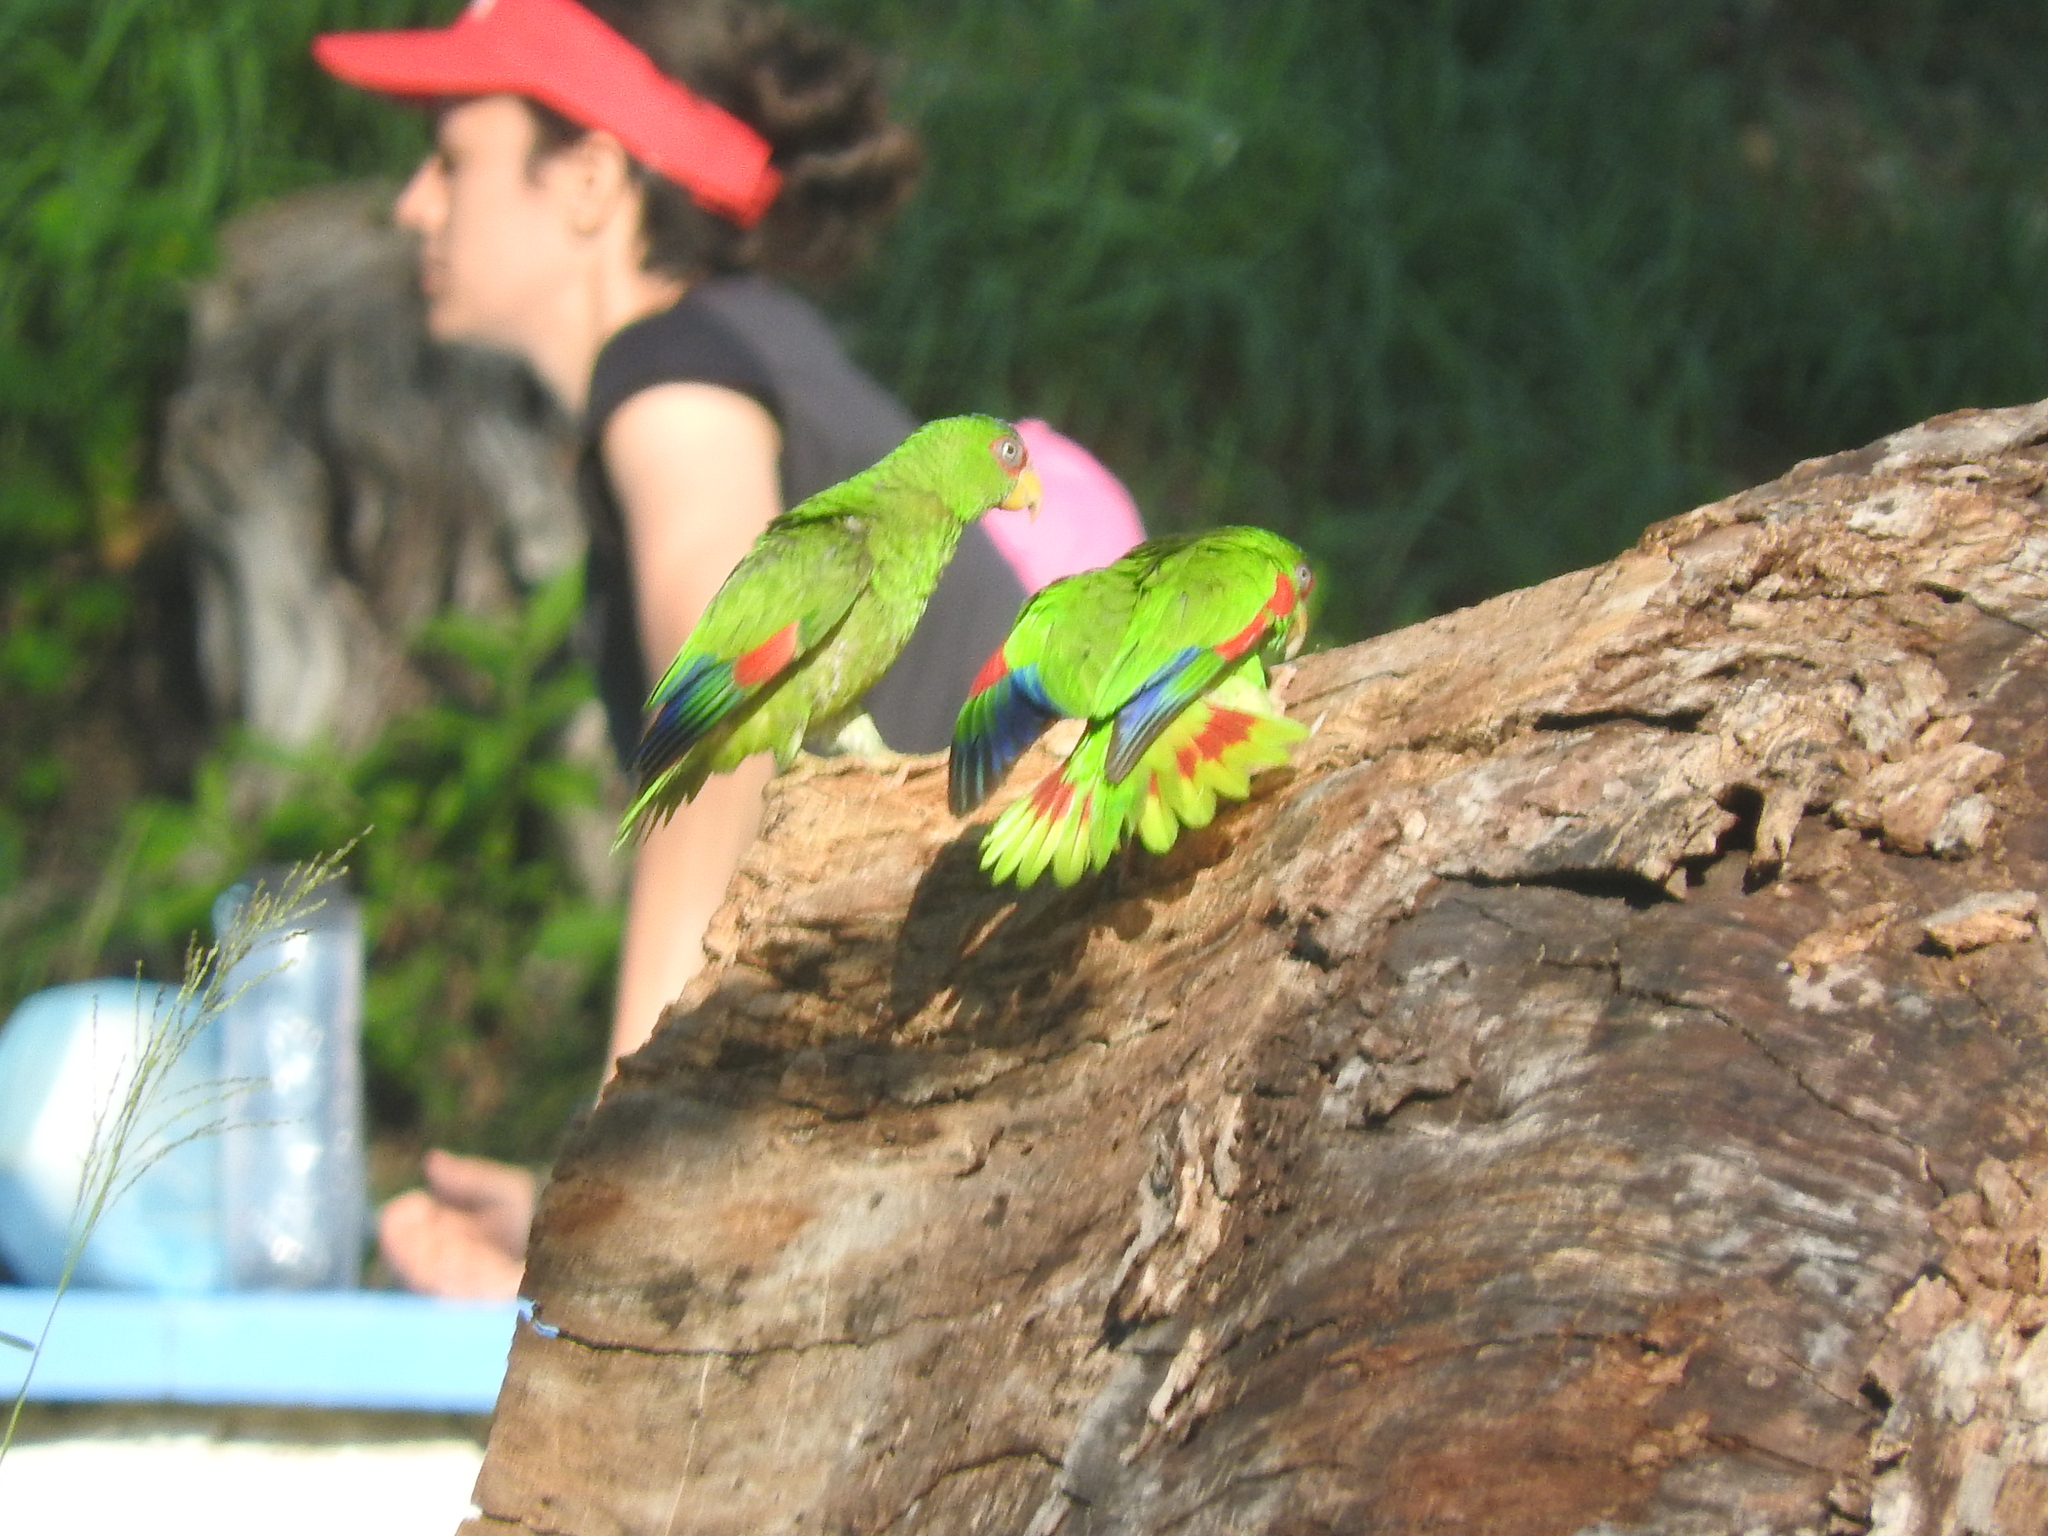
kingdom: Animalia
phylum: Chordata
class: Aves
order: Psittaciformes
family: Psittacidae
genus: Amazona
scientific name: Amazona albifrons
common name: White-fronted amazon
